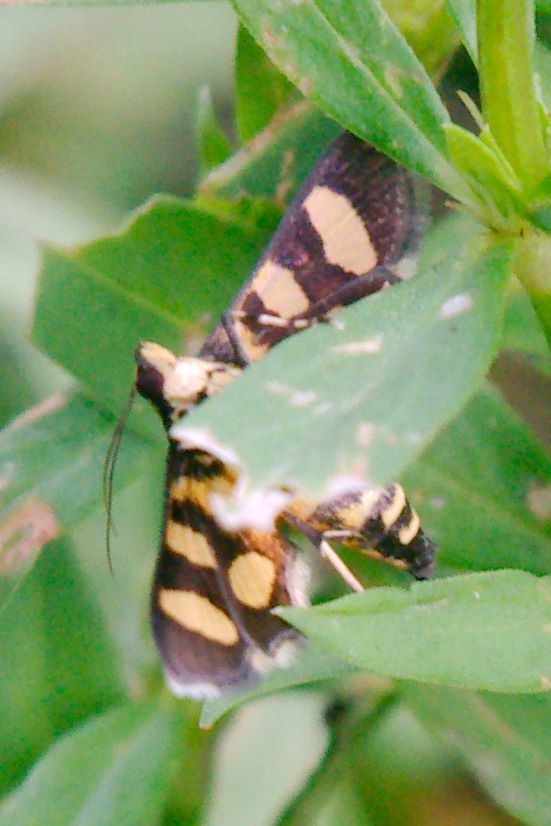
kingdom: Animalia
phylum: Arthropoda
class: Insecta
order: Lepidoptera
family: Crambidae
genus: Syngamia
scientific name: Syngamia florella
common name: Orange-spotted flower moth
